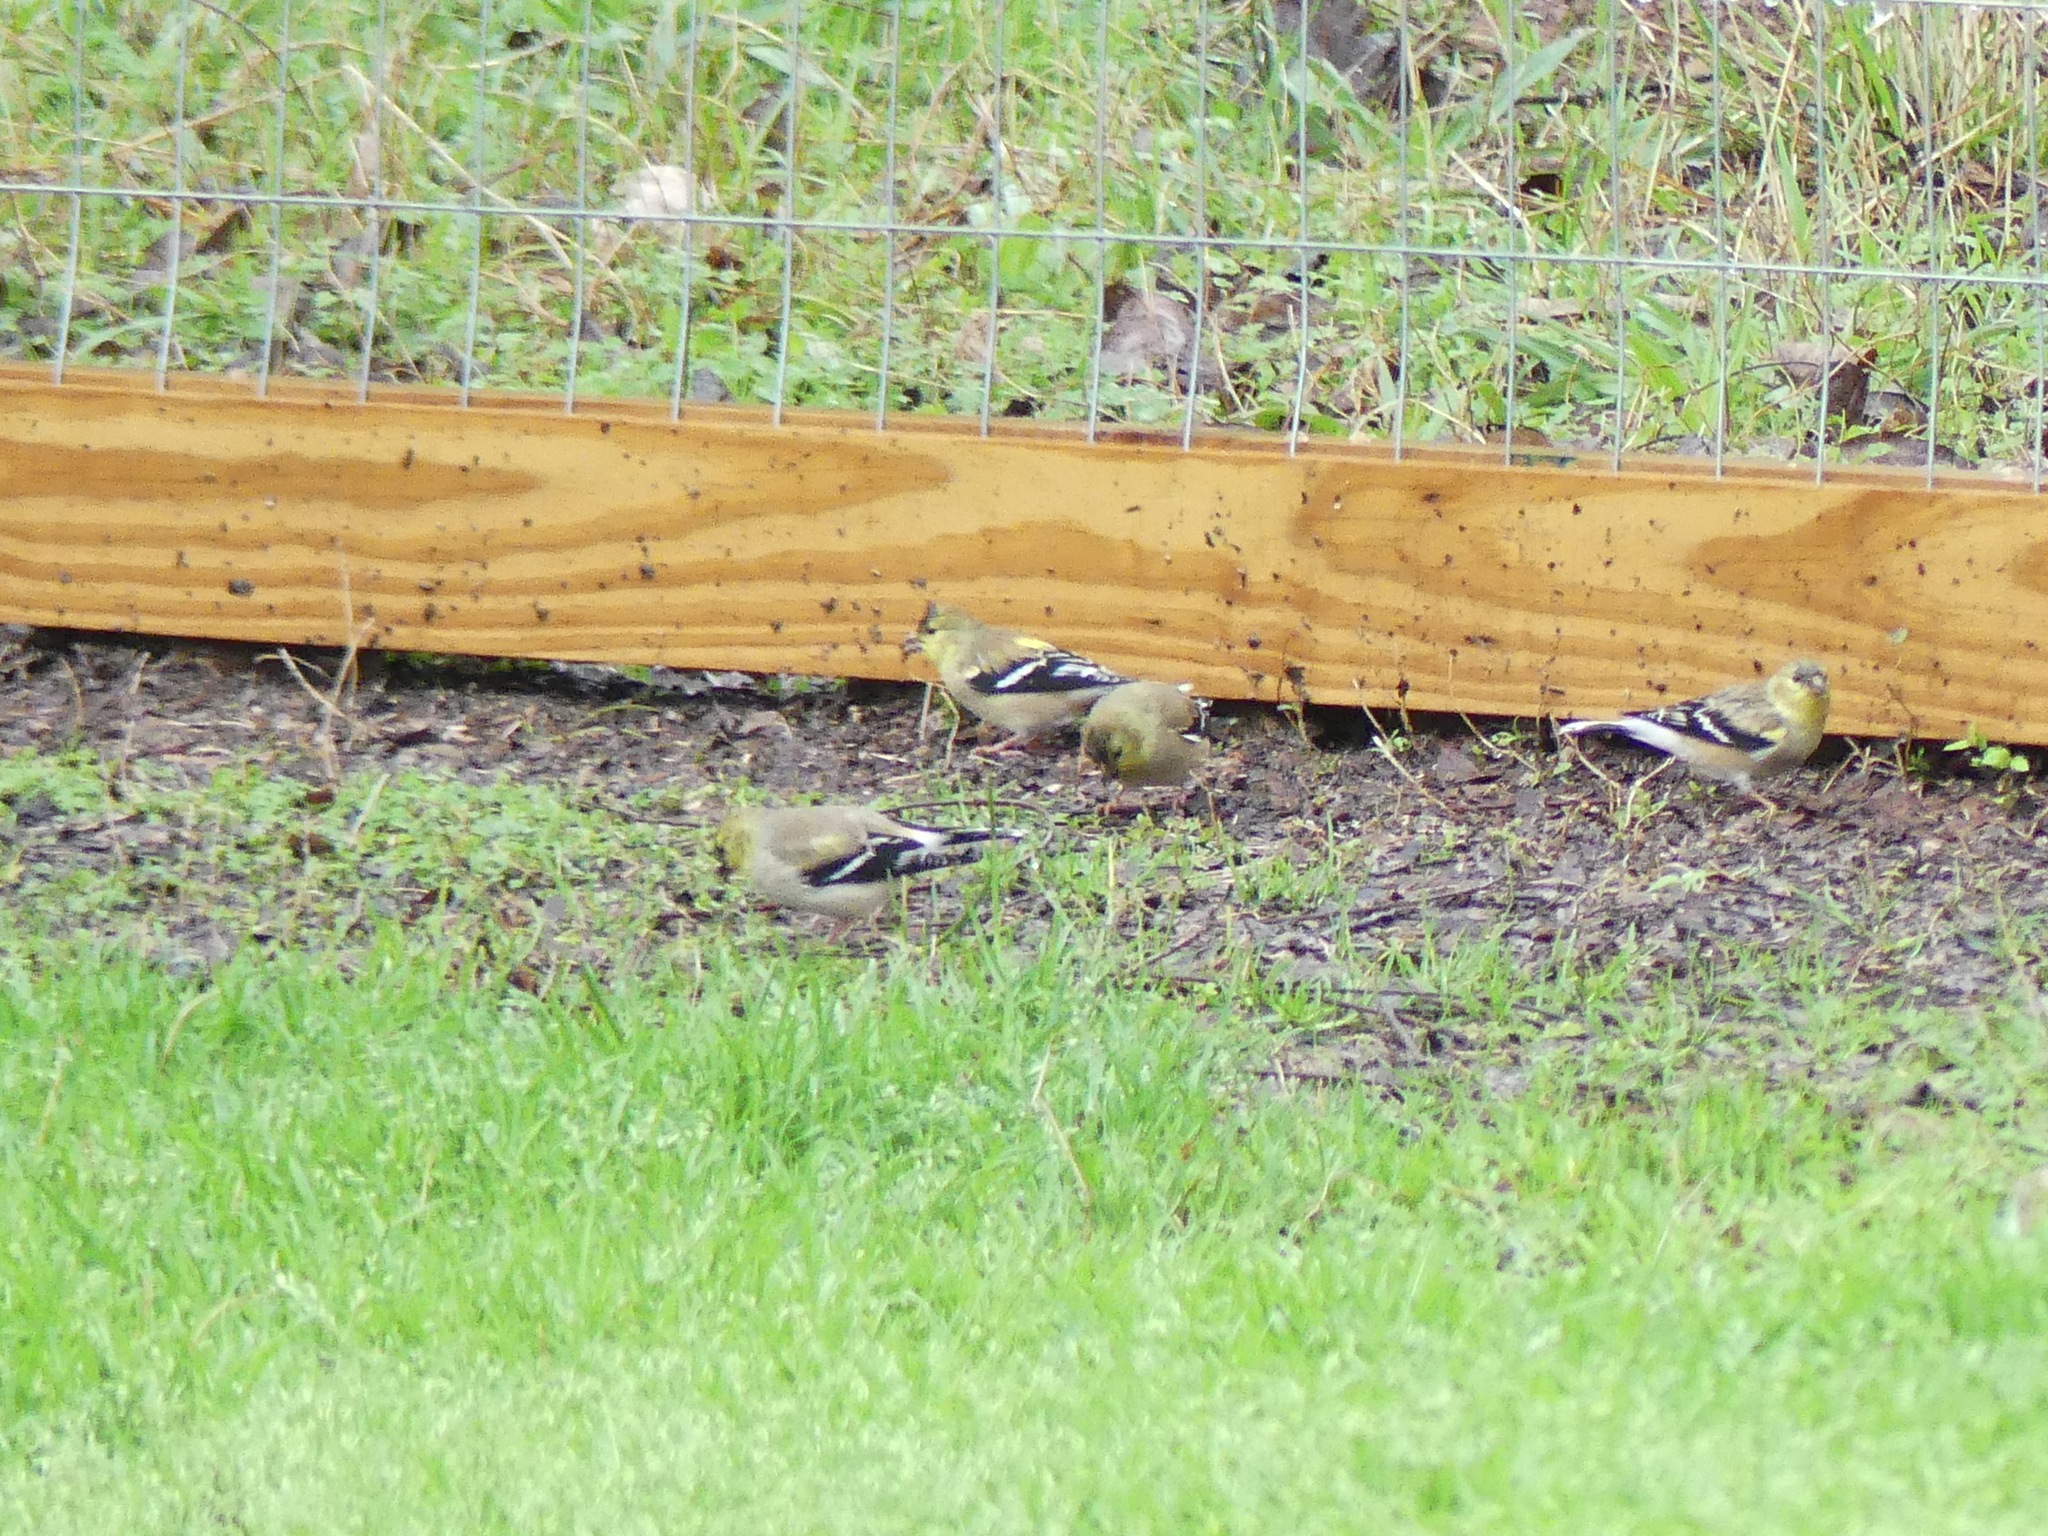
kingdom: Animalia
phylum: Chordata
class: Aves
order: Passeriformes
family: Fringillidae
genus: Spinus
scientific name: Spinus tristis
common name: American goldfinch
